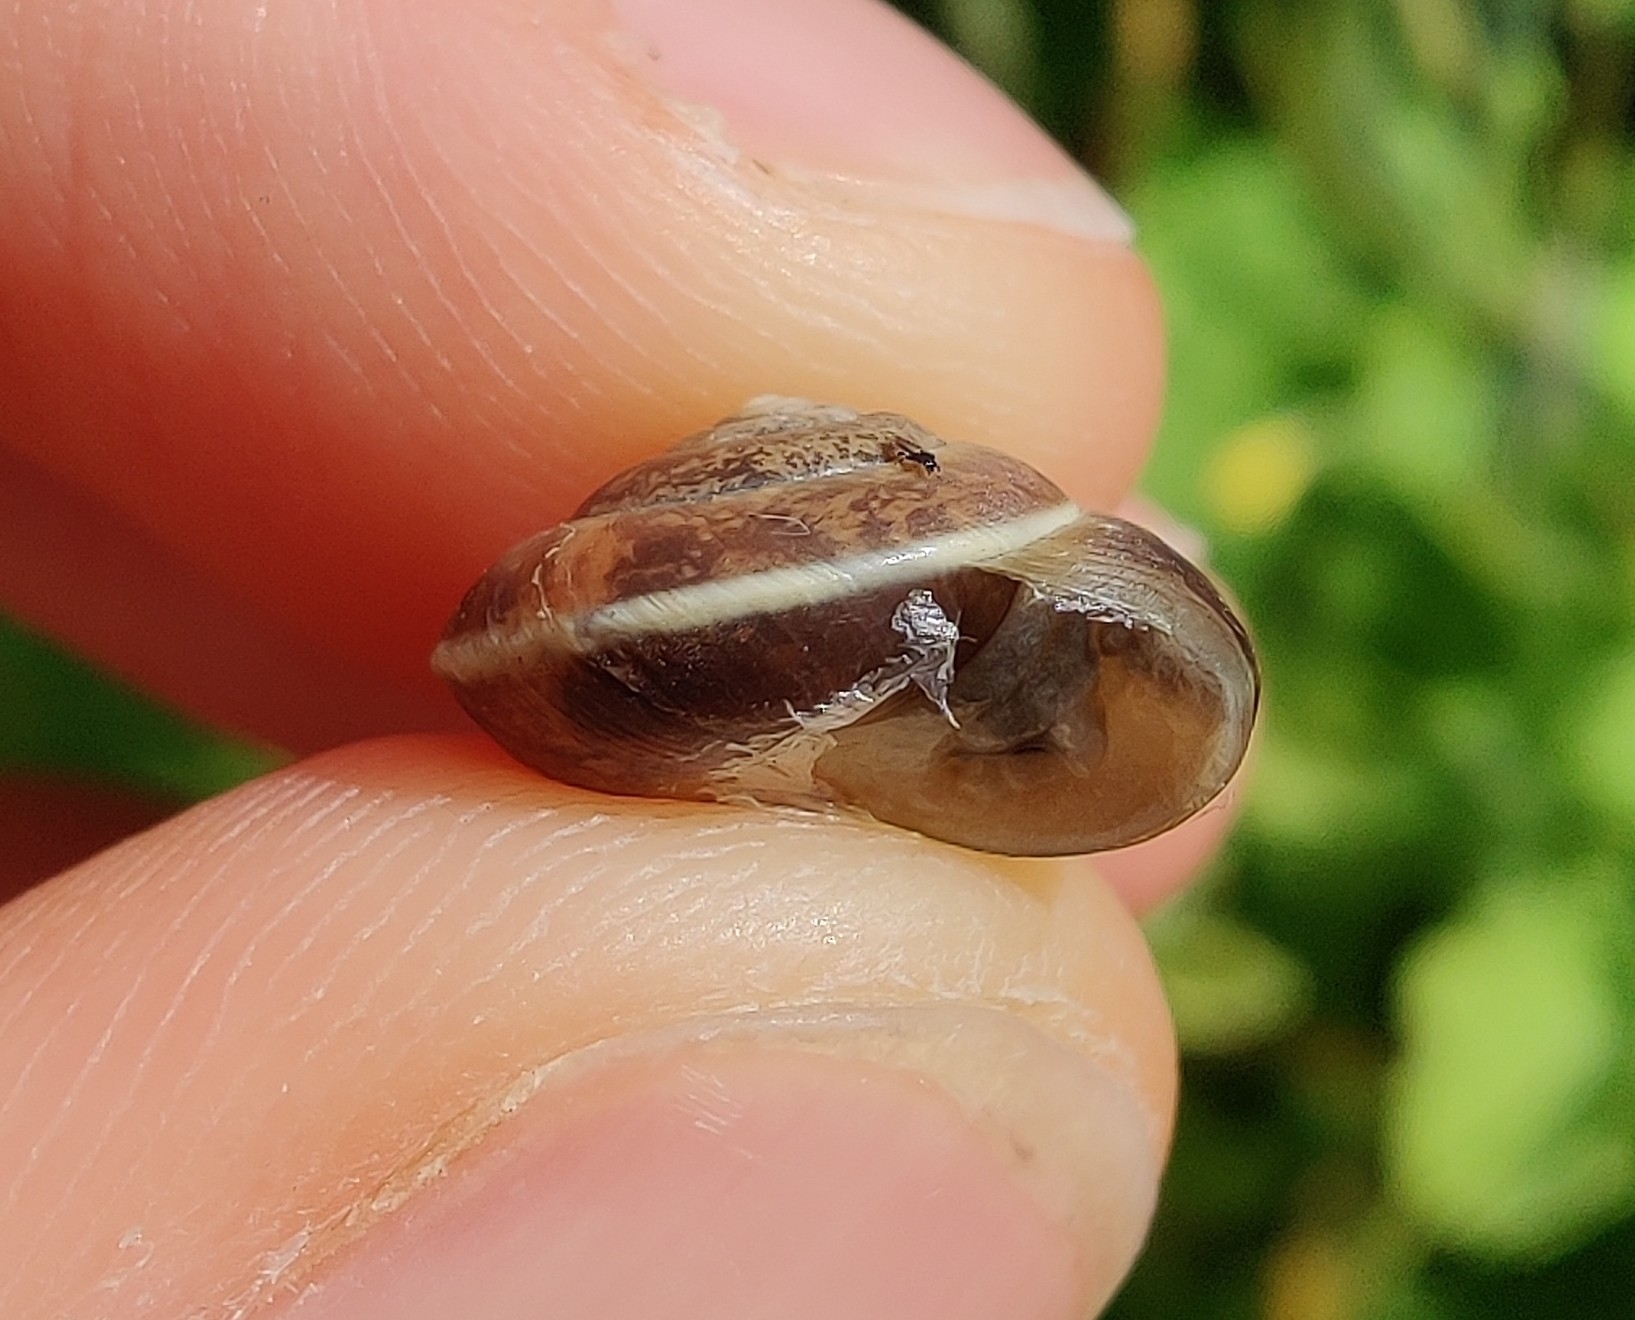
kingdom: Animalia
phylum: Mollusca
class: Gastropoda
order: Stylommatophora
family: Hygromiidae
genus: Hygromia
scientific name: Hygromia cinctella
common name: Girdled snail
